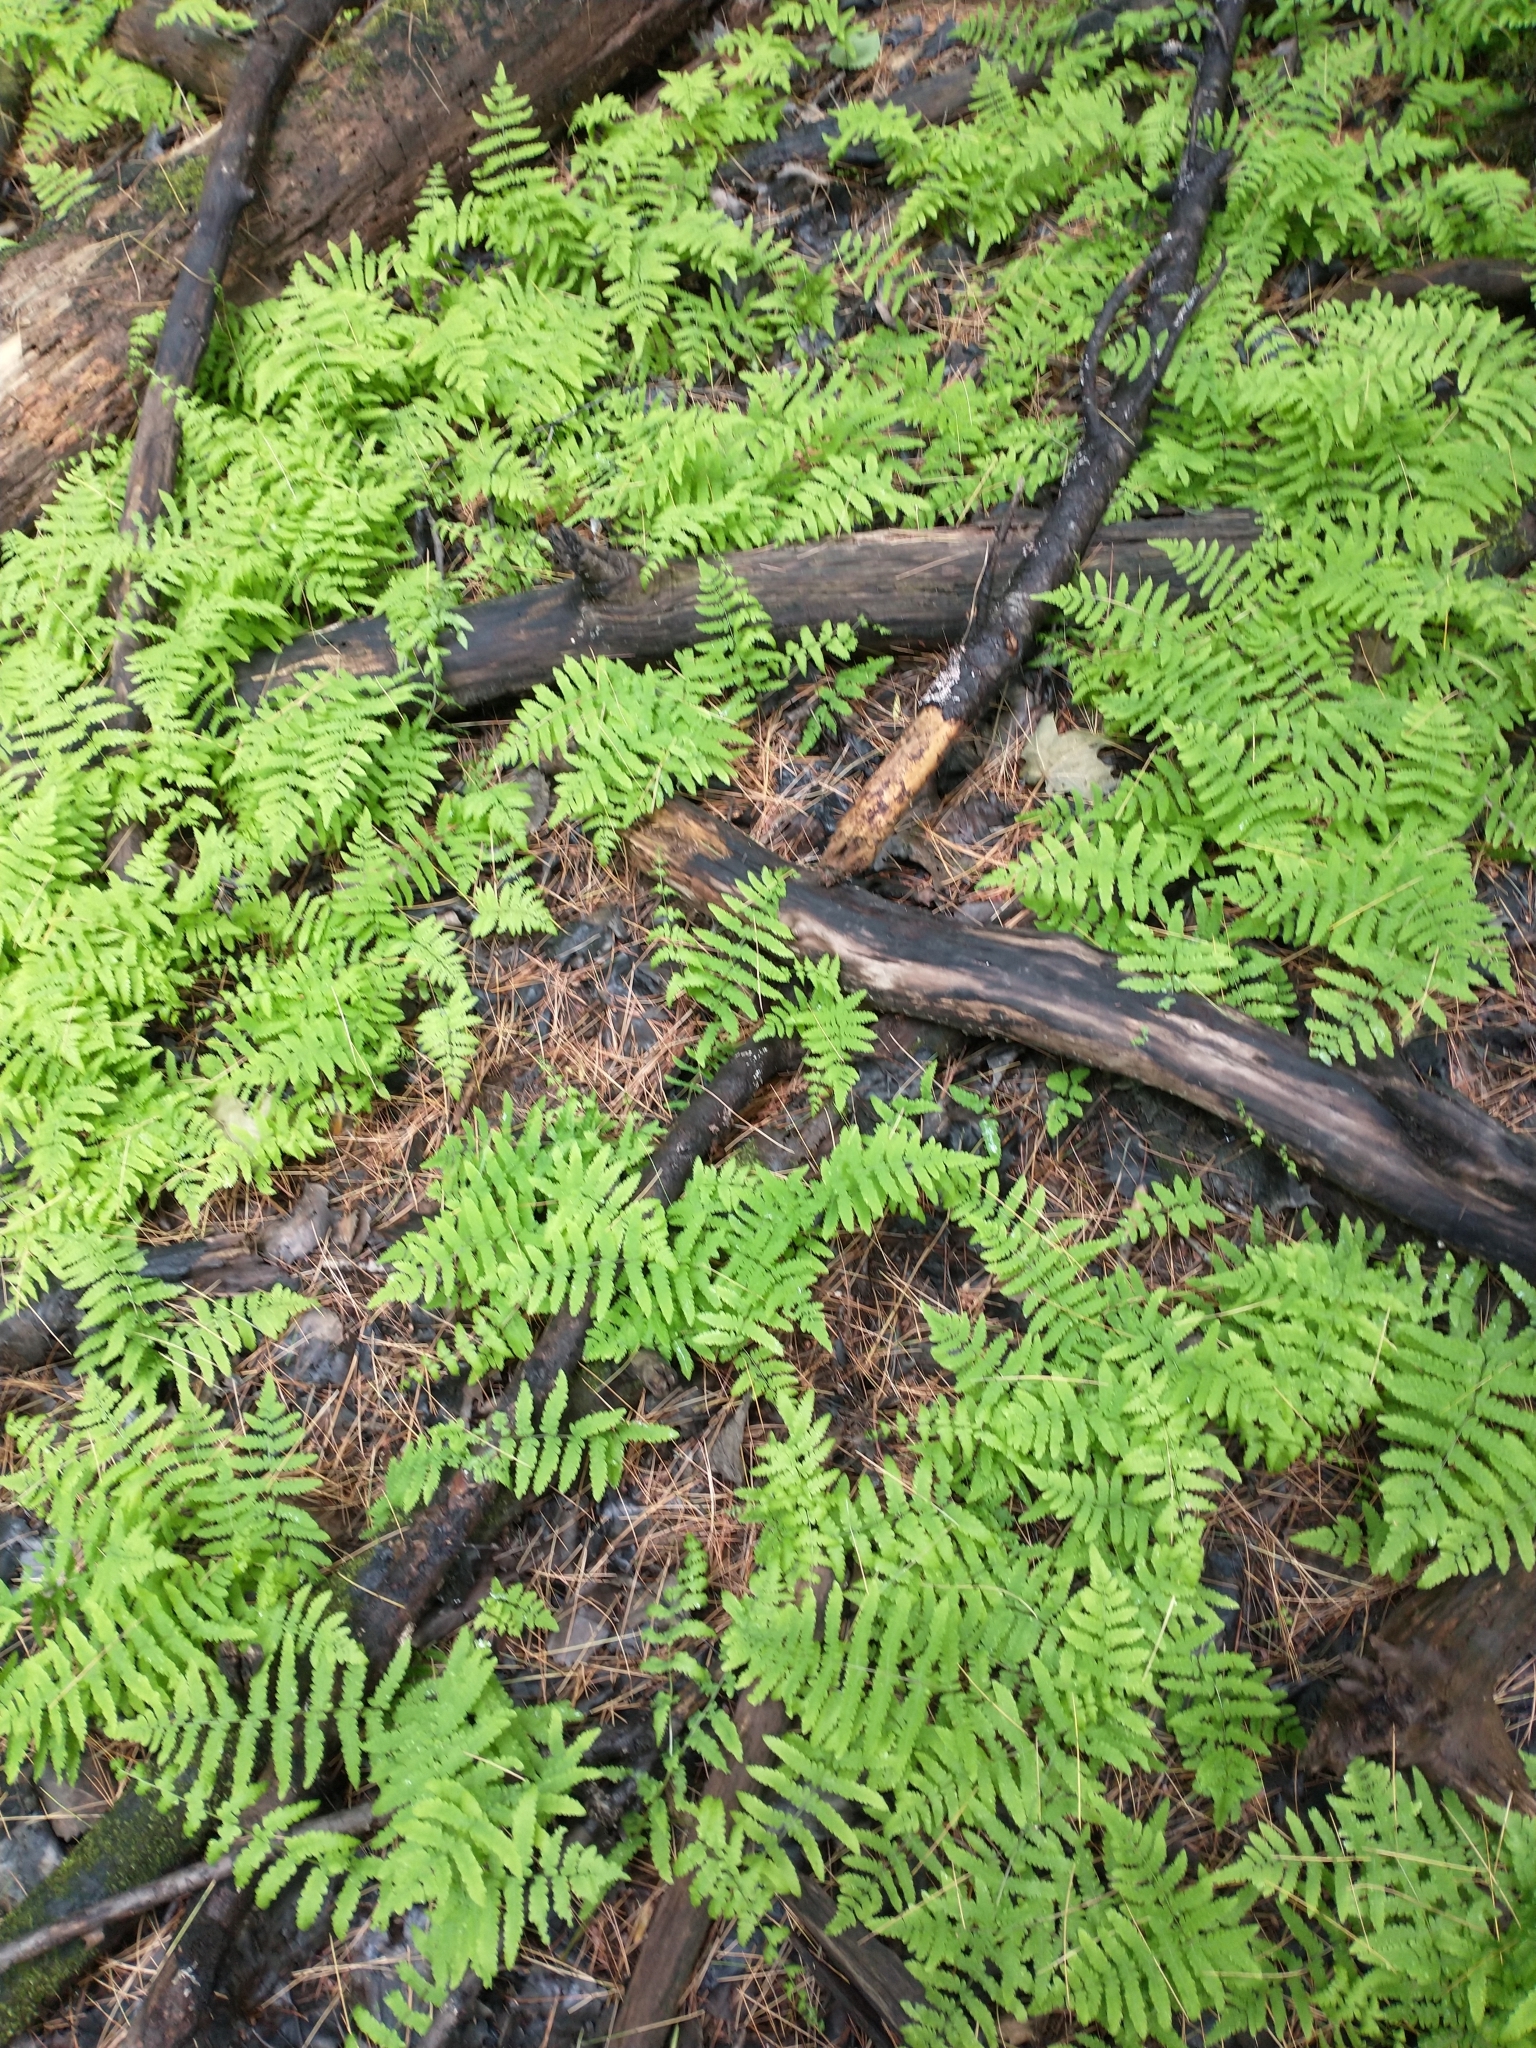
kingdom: Plantae
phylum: Tracheophyta
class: Polypodiopsida
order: Polypodiales
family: Thelypteridaceae
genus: Thelypteris
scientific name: Thelypteris palustris
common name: Marsh fern
